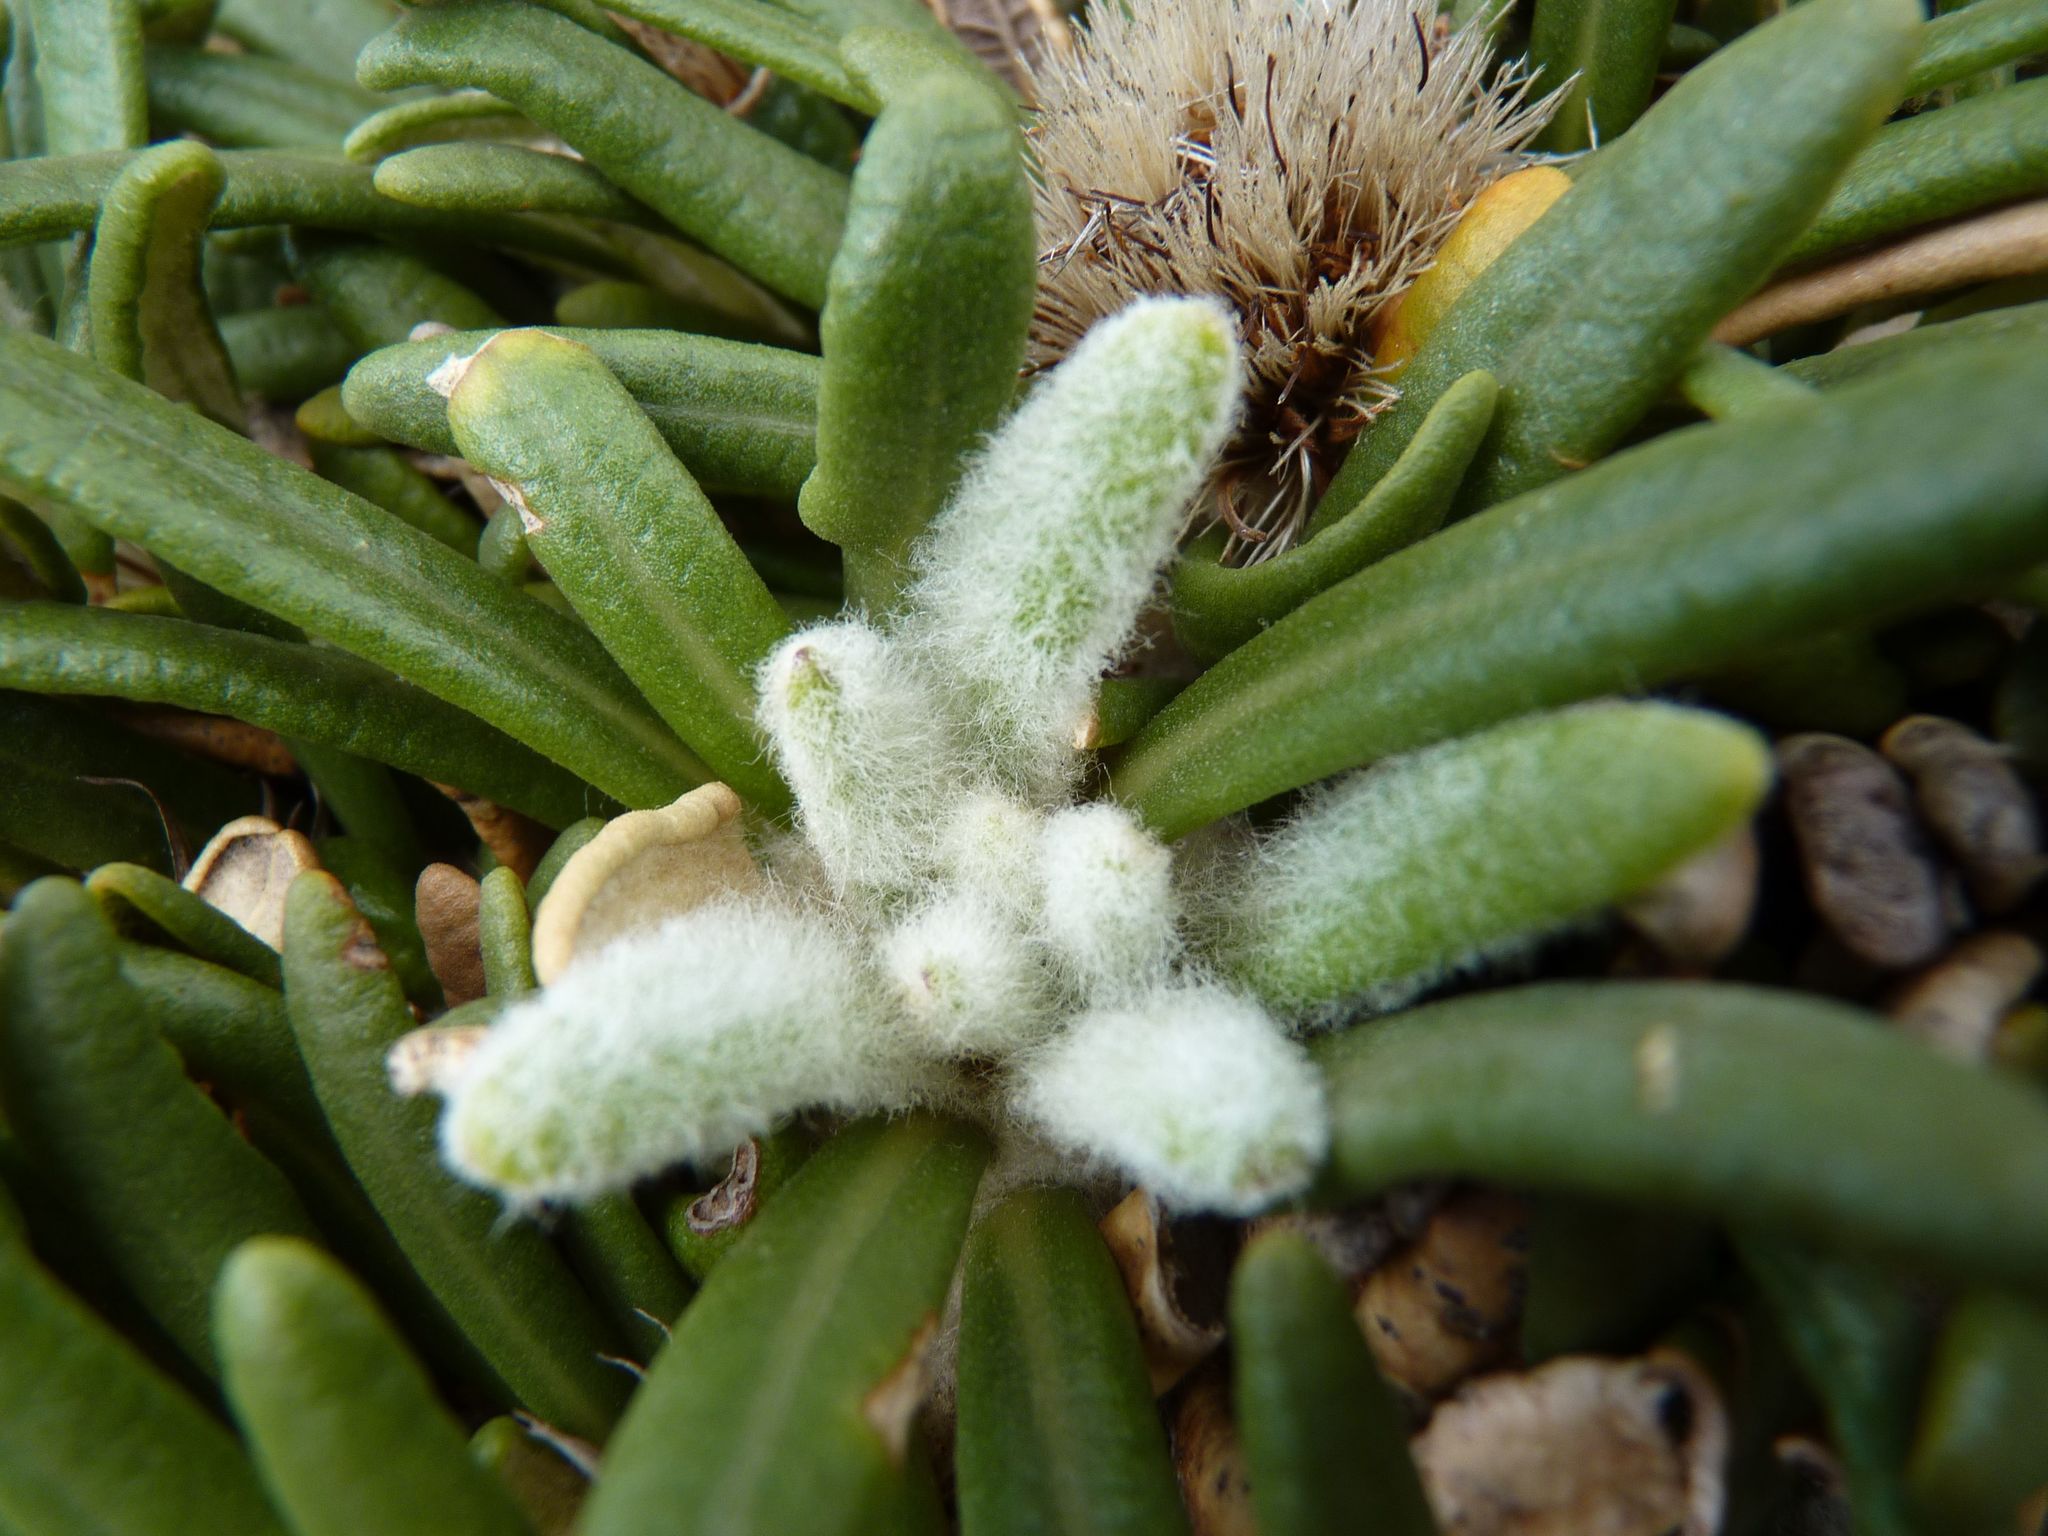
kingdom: Plantae
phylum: Tracheophyta
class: Magnoliopsida
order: Asterales
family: Asteraceae
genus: Oldenburgia
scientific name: Oldenburgia paradoxa
